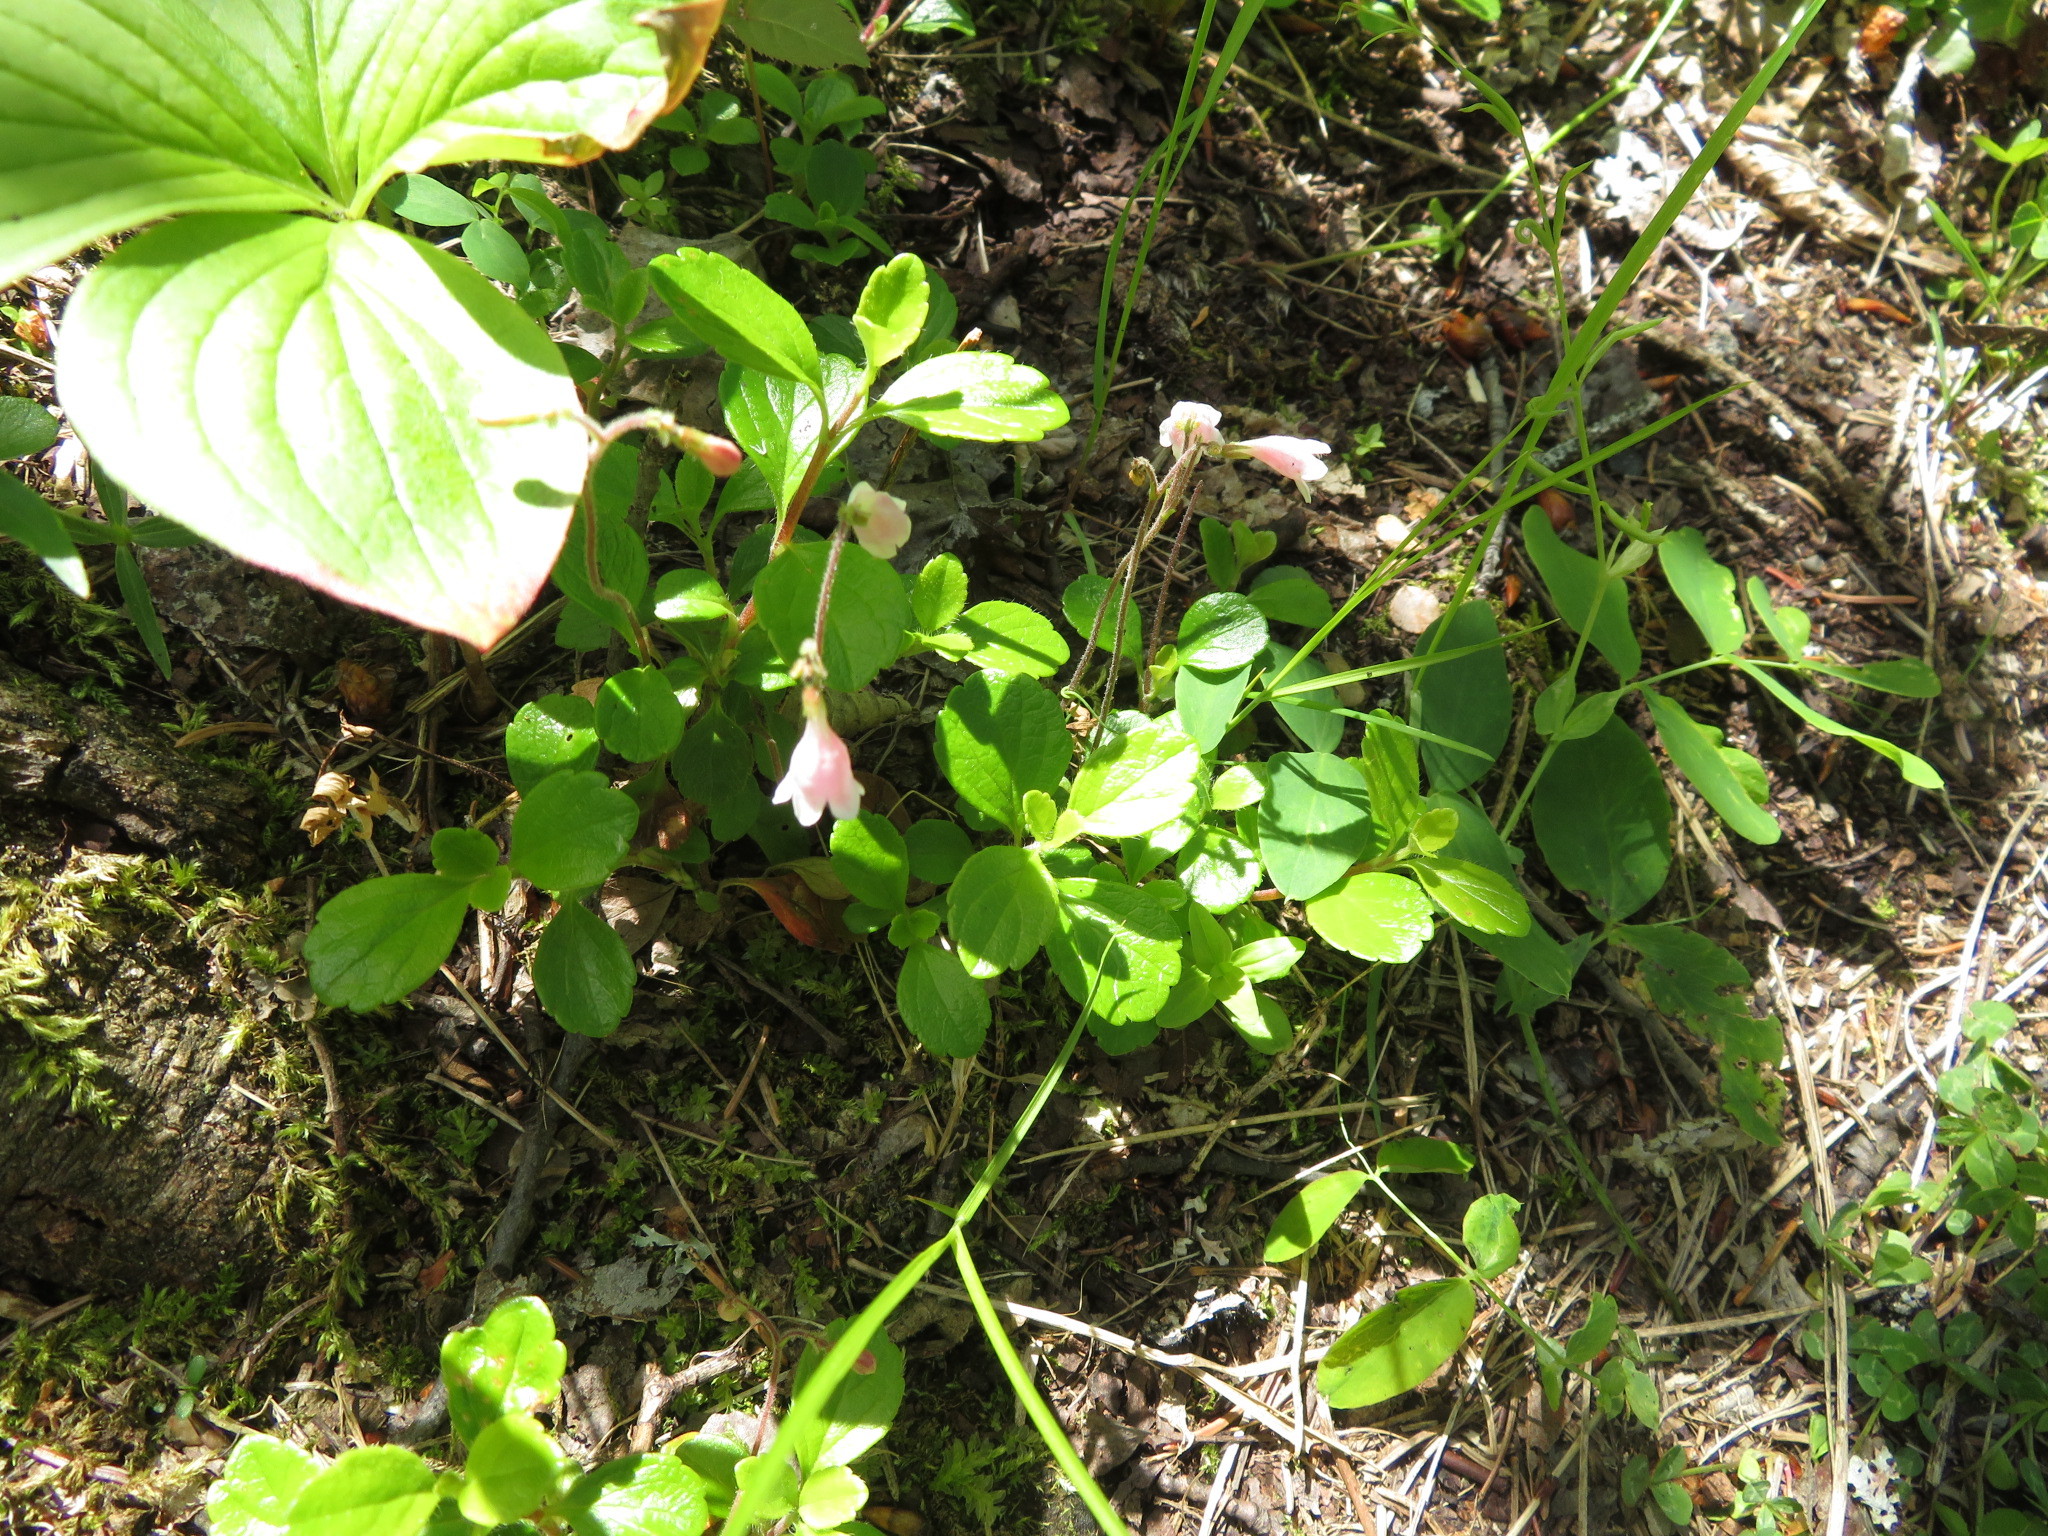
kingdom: Plantae
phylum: Tracheophyta
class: Magnoliopsida
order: Dipsacales
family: Caprifoliaceae
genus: Linnaea
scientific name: Linnaea borealis
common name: Twinflower
